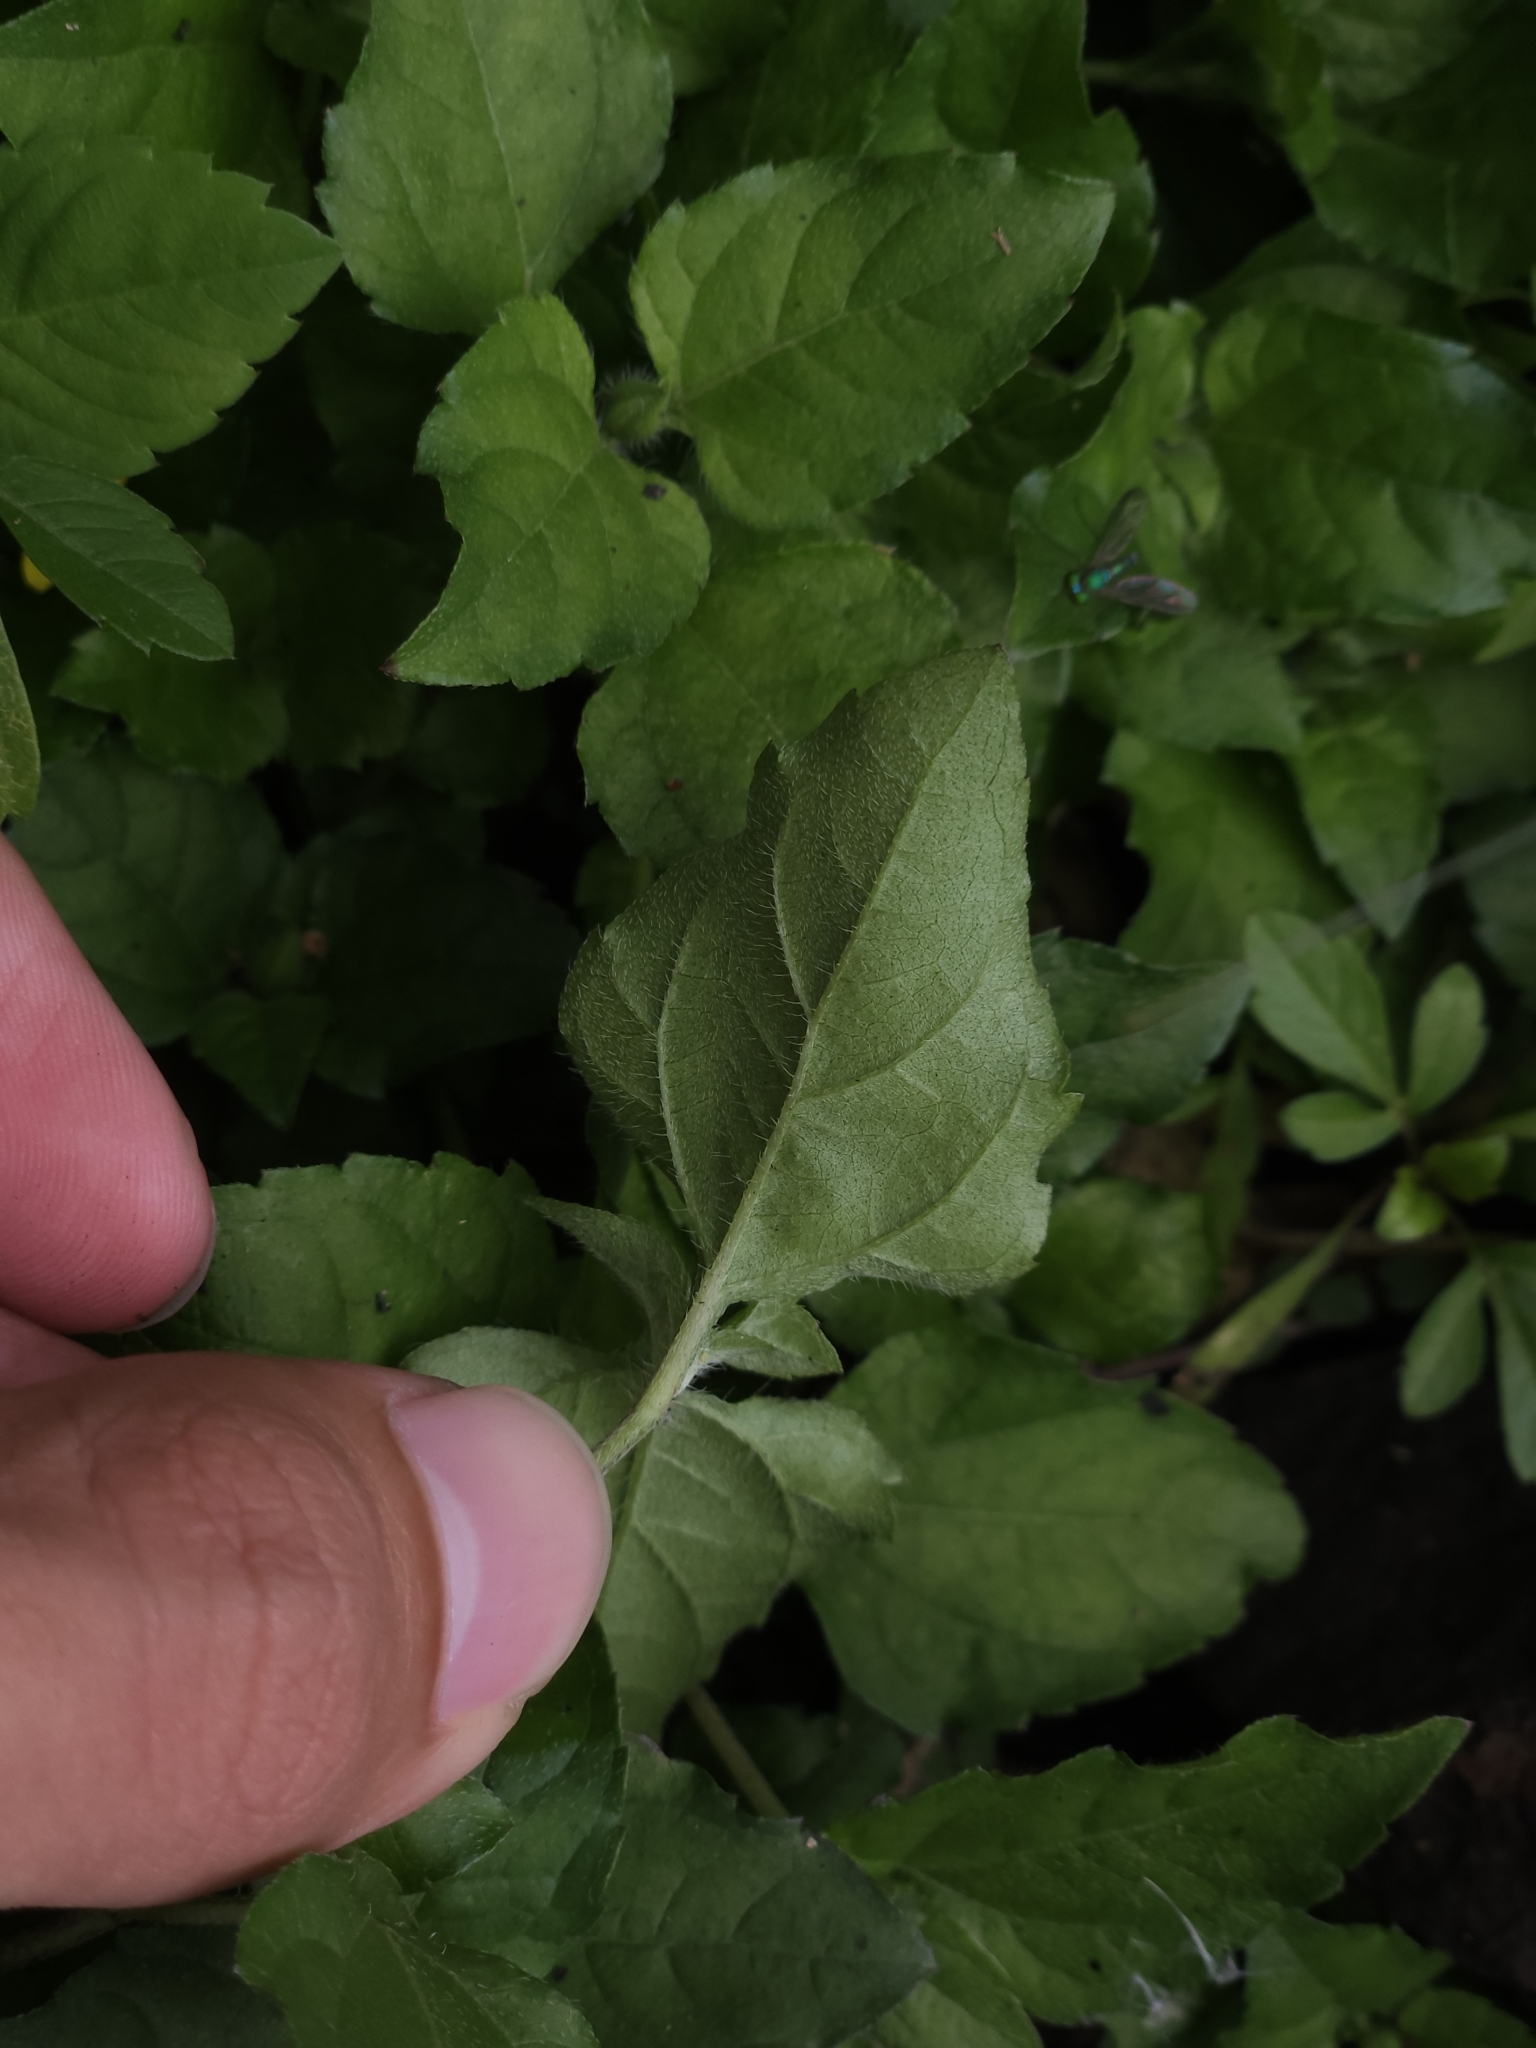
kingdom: Plantae
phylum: Tracheophyta
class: Magnoliopsida
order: Asterales
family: Asteraceae
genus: Calyptocarpus
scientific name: Calyptocarpus vialis
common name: Straggler daisy
